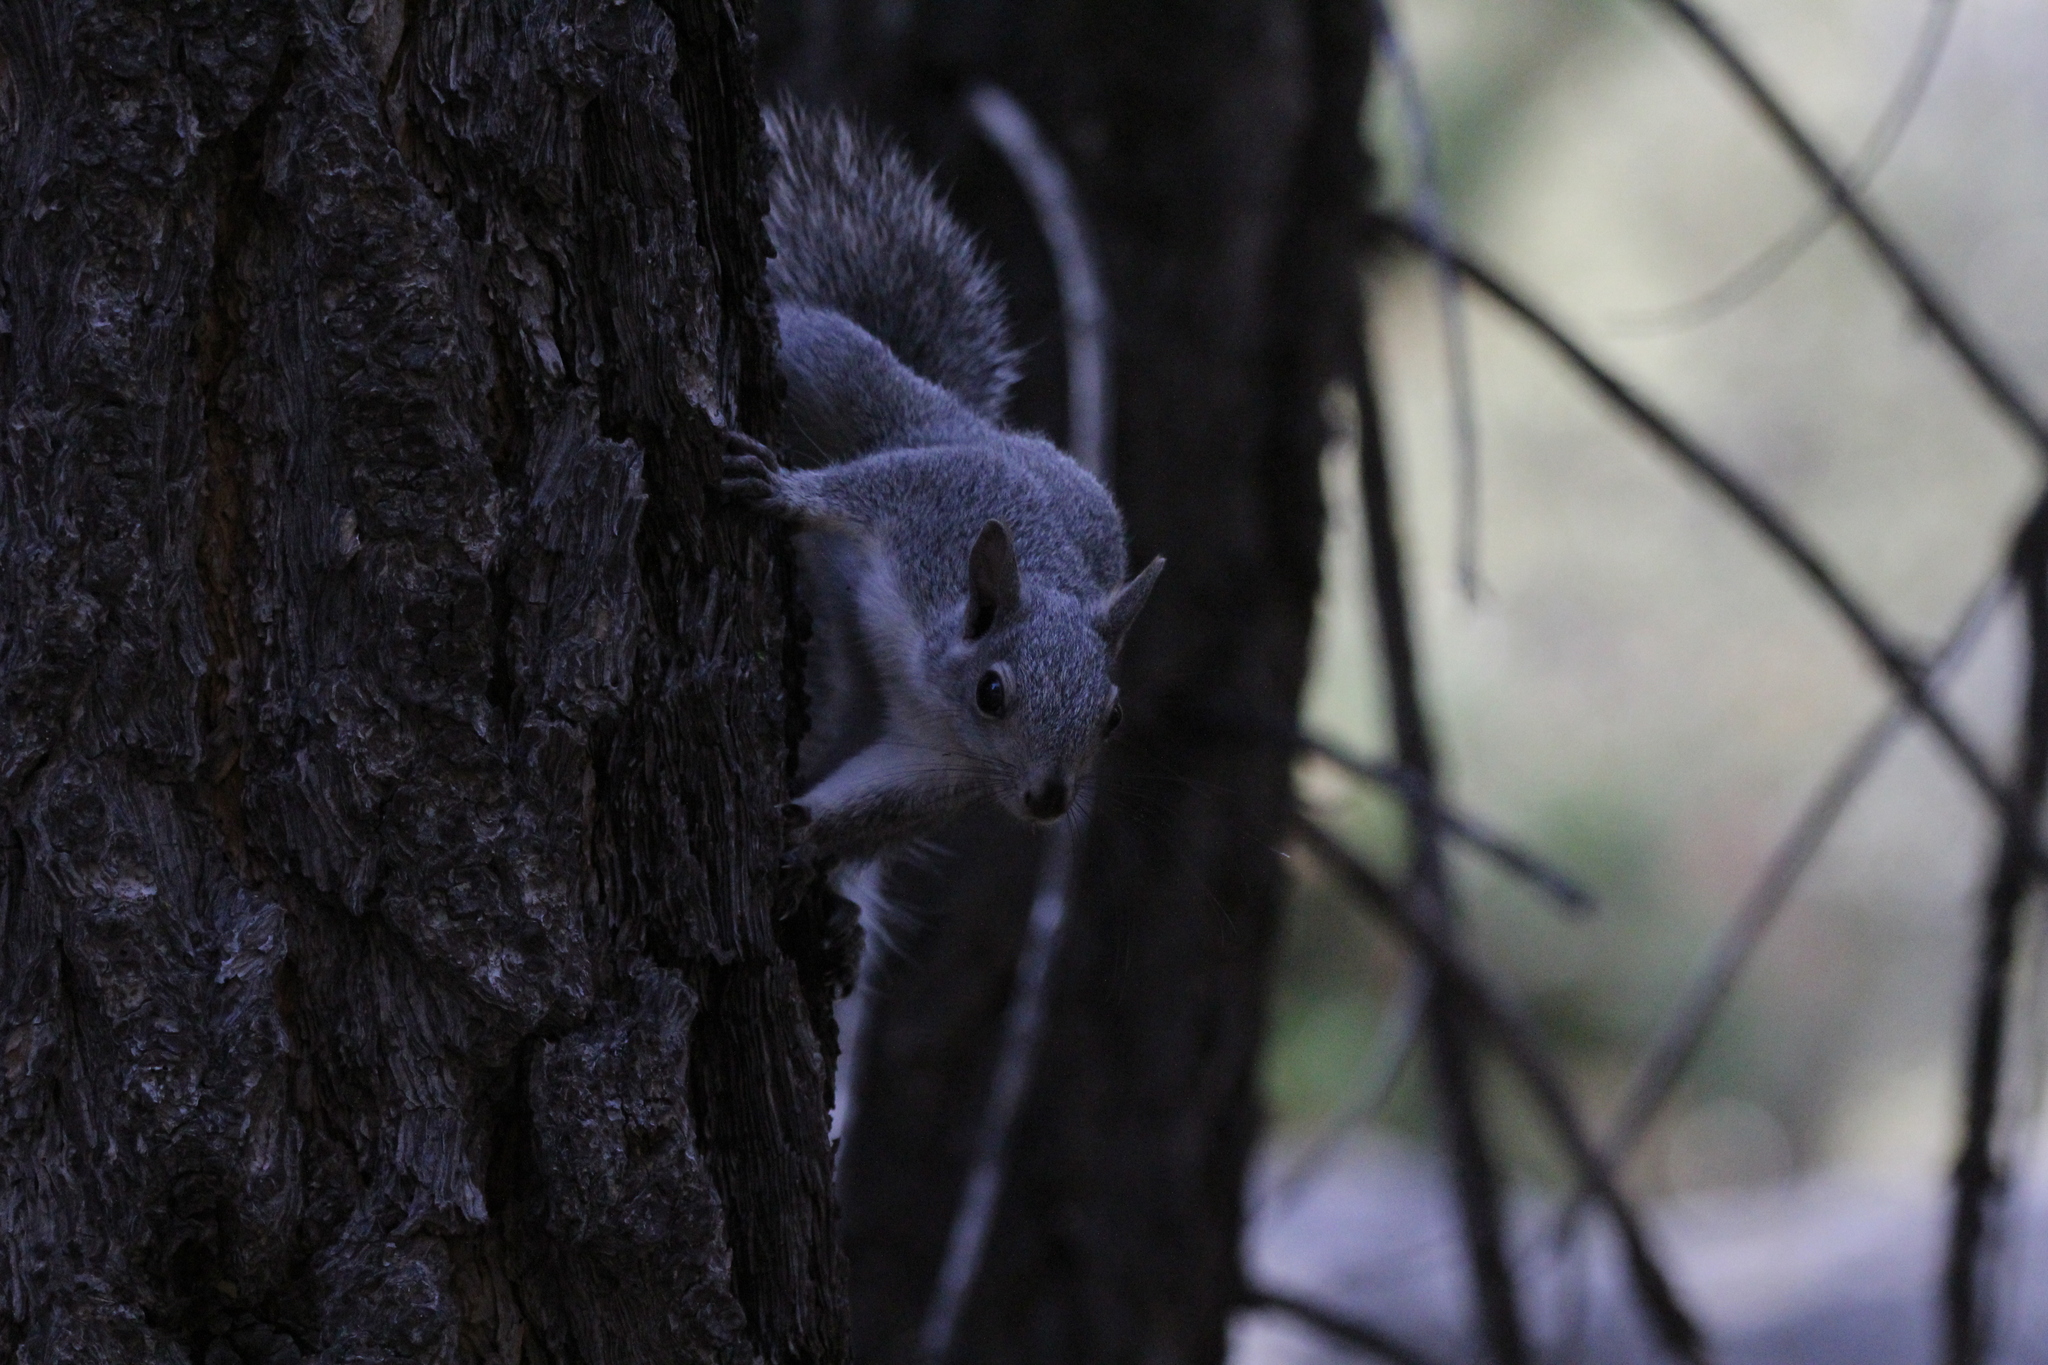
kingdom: Animalia
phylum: Chordata
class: Mammalia
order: Rodentia
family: Sciuridae
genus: Sciurus
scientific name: Sciurus griseus
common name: Western gray squirrel
